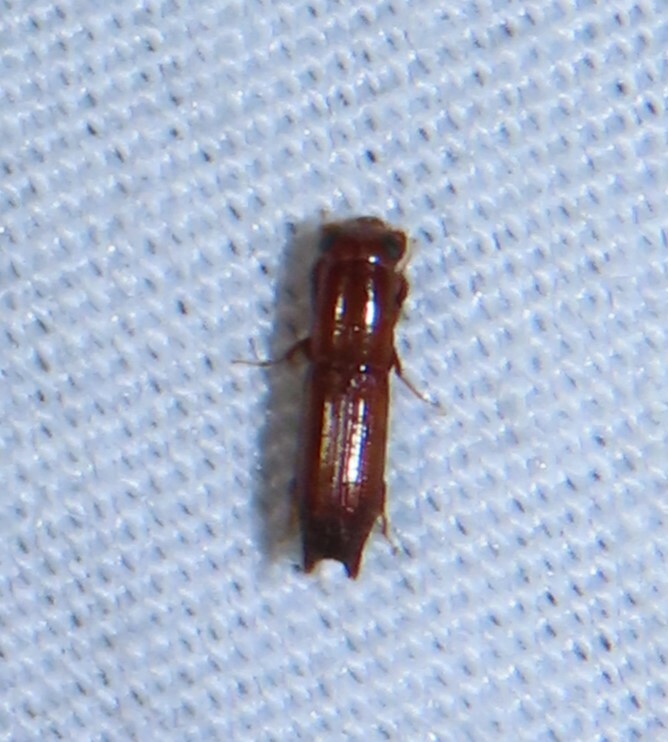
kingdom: Animalia
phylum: Arthropoda
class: Insecta
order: Coleoptera
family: Curculionidae
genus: Euplatypus
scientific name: Euplatypus compositus
